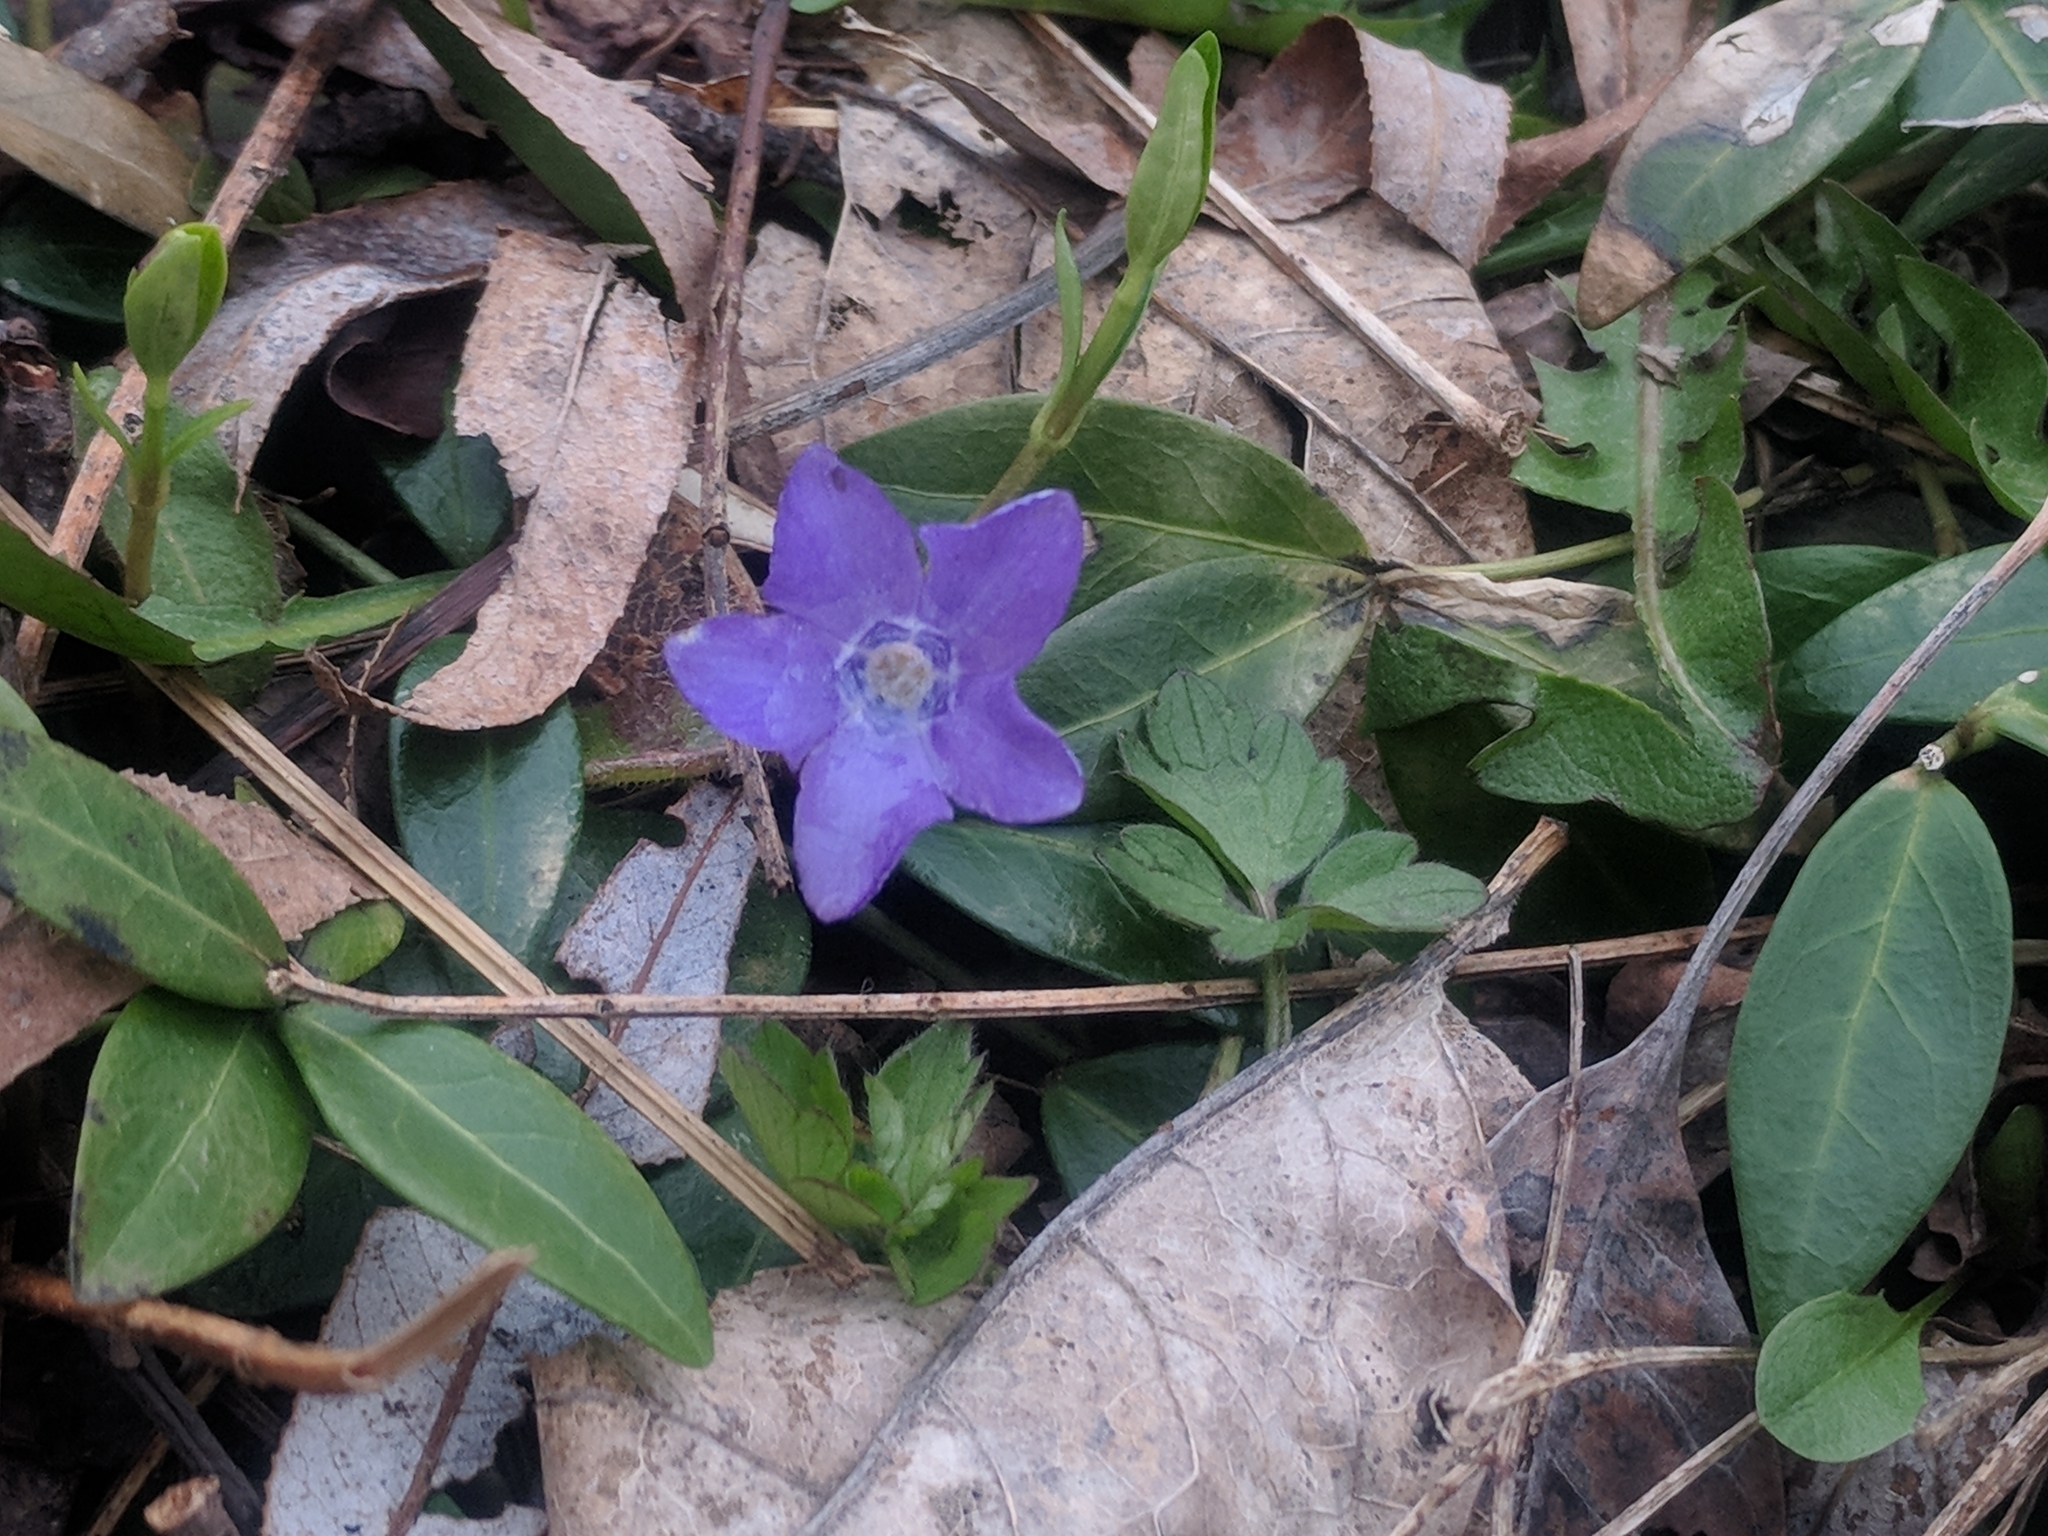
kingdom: Plantae
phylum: Tracheophyta
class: Magnoliopsida
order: Gentianales
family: Apocynaceae
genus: Vinca
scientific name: Vinca minor
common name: Lesser periwinkle
